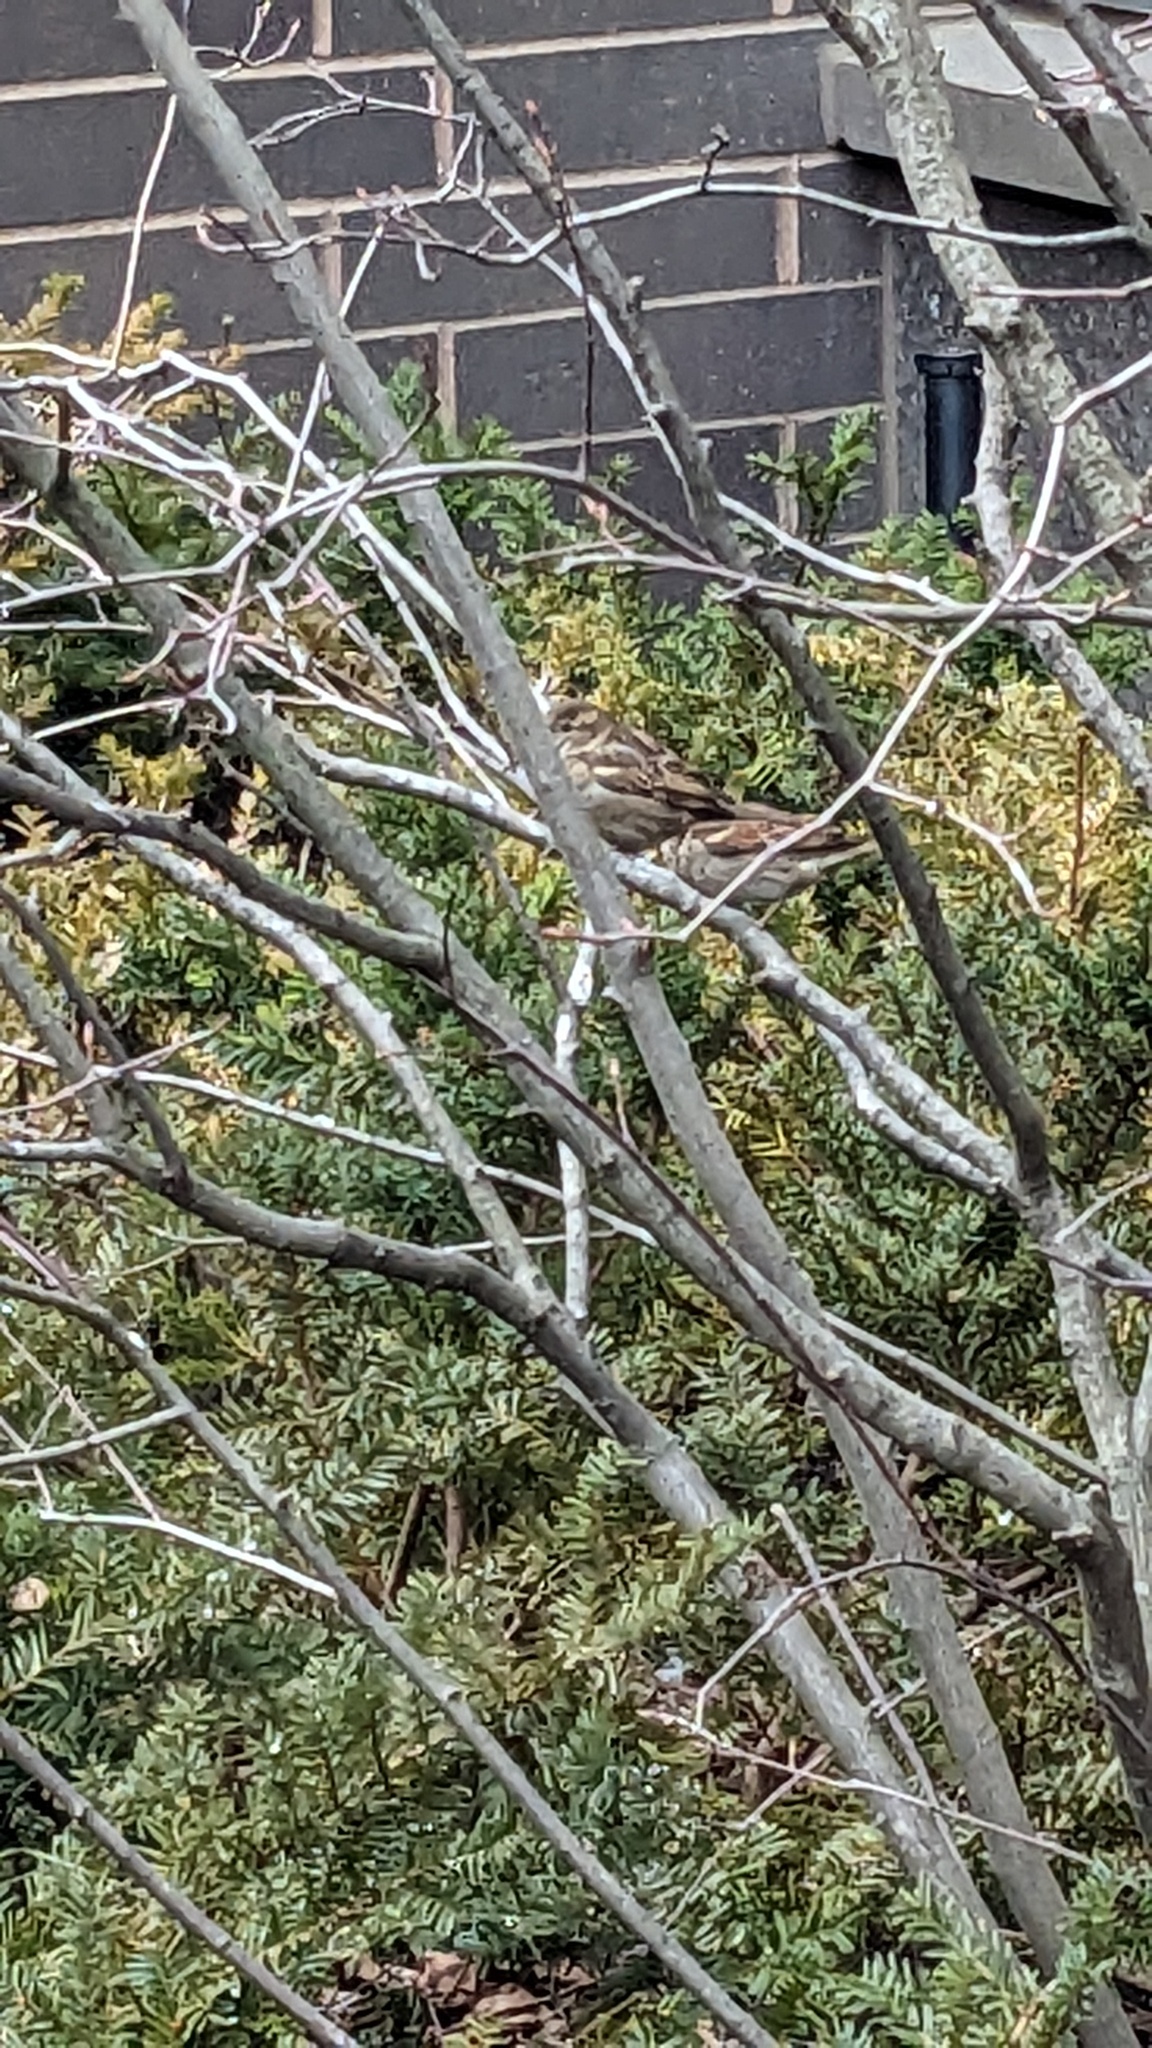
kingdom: Animalia
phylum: Chordata
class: Aves
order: Passeriformes
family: Passeridae
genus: Passer
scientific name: Passer domesticus
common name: House sparrow
